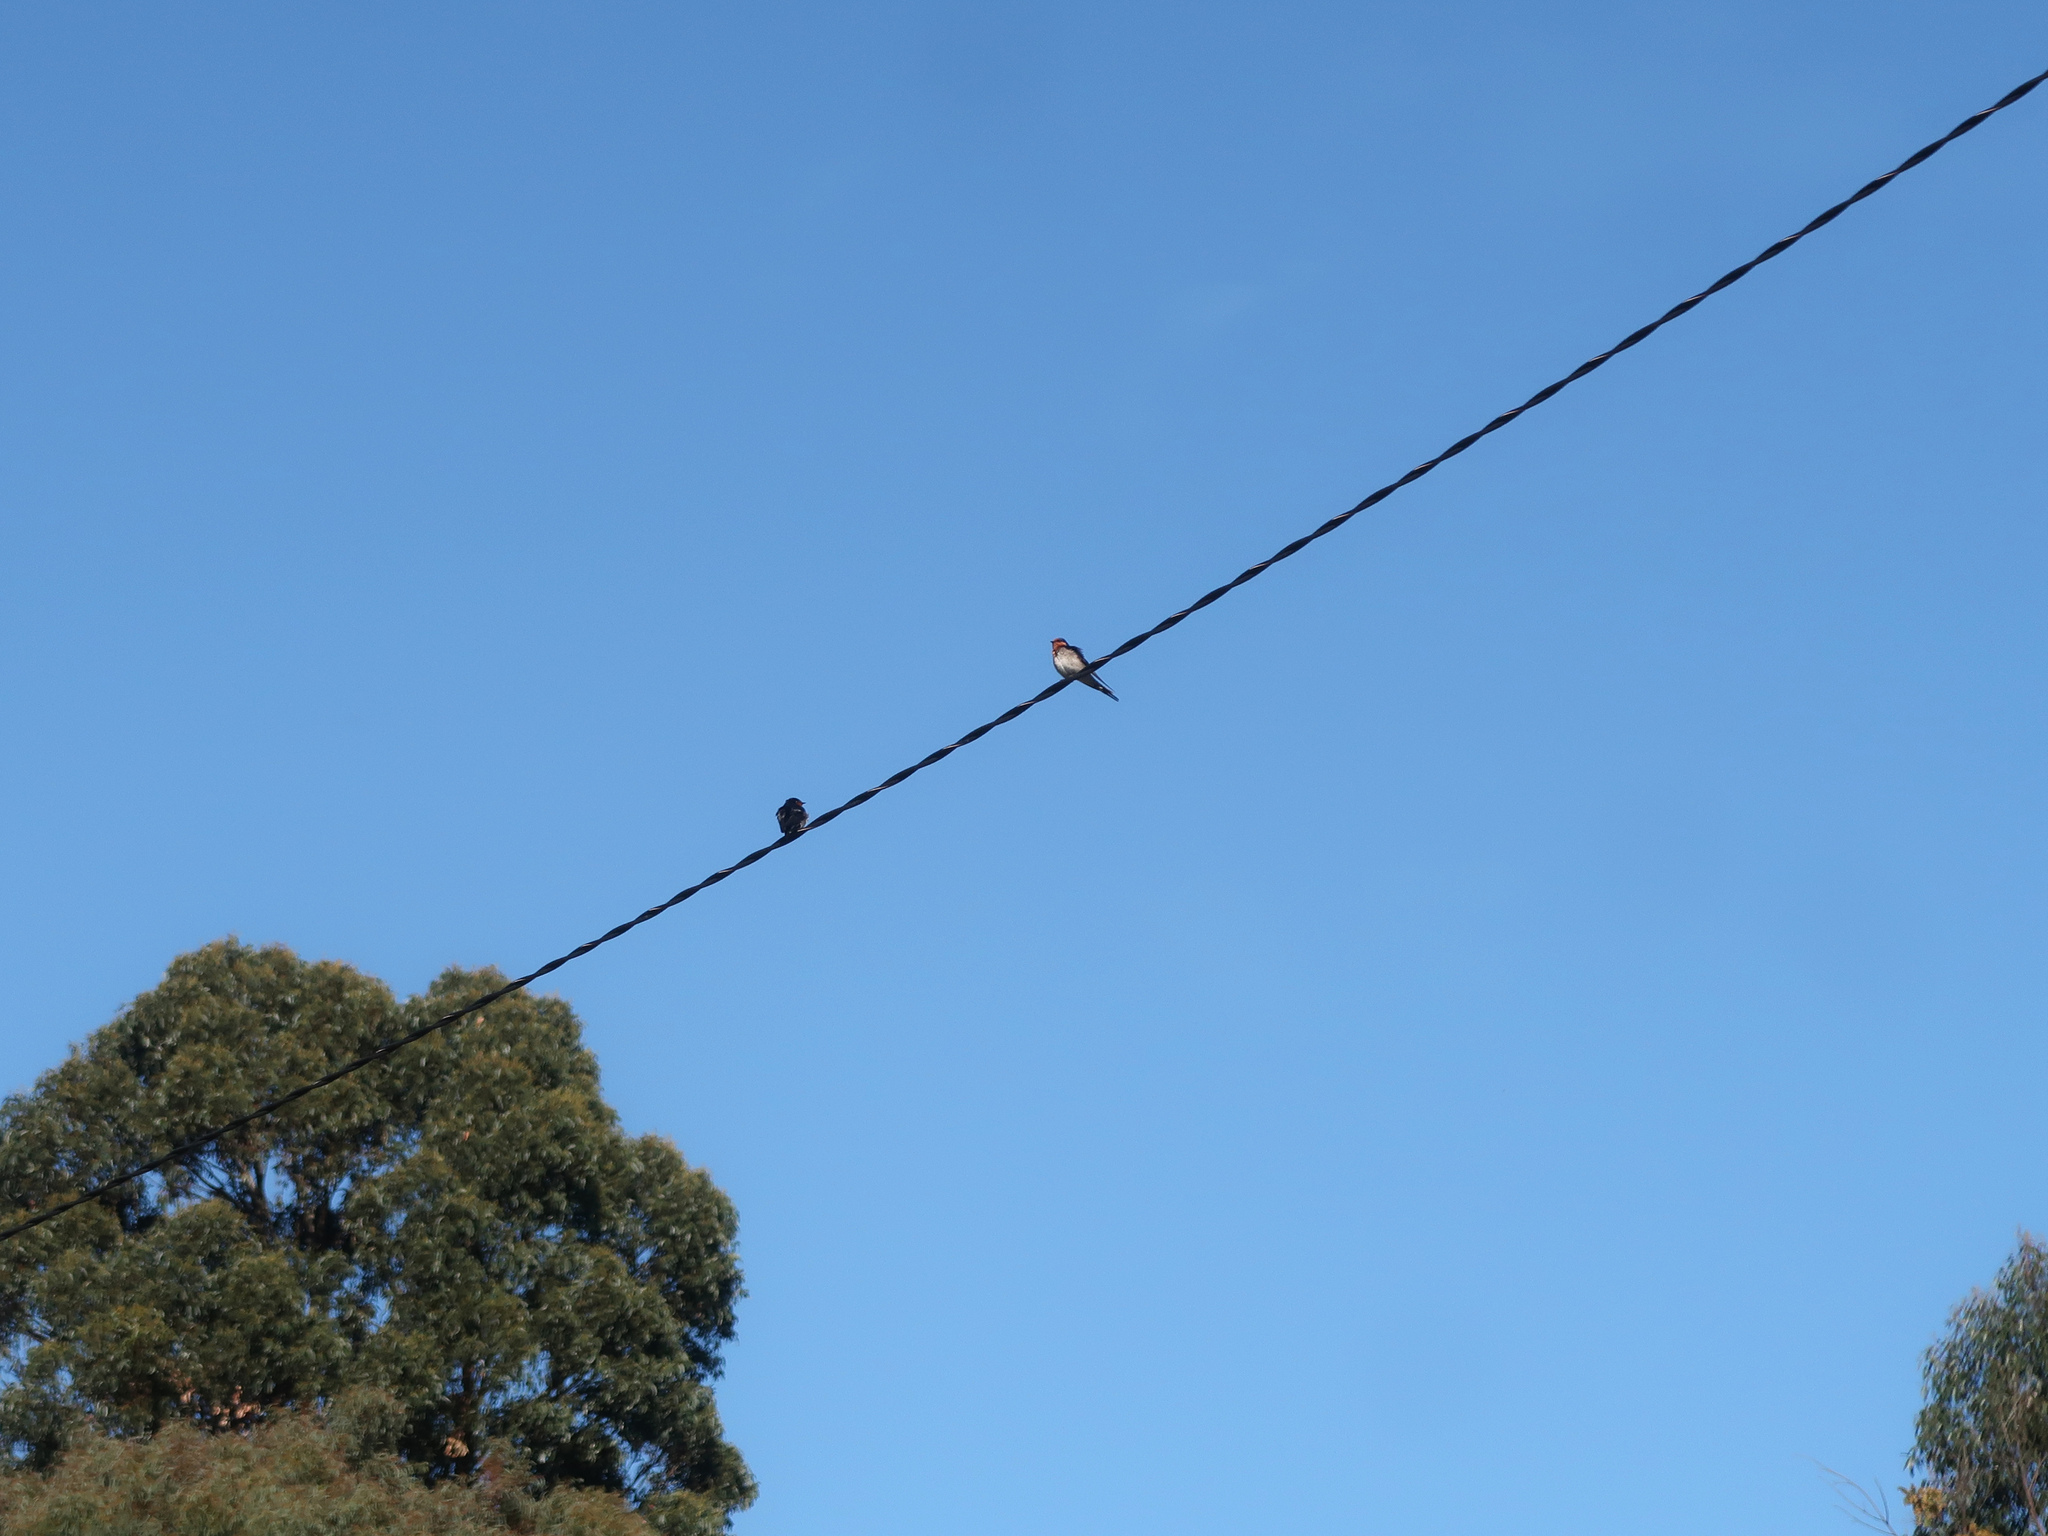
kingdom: Animalia
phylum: Chordata
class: Aves
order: Passeriformes
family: Hirundinidae
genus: Hirundo
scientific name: Hirundo neoxena
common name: Welcome swallow
